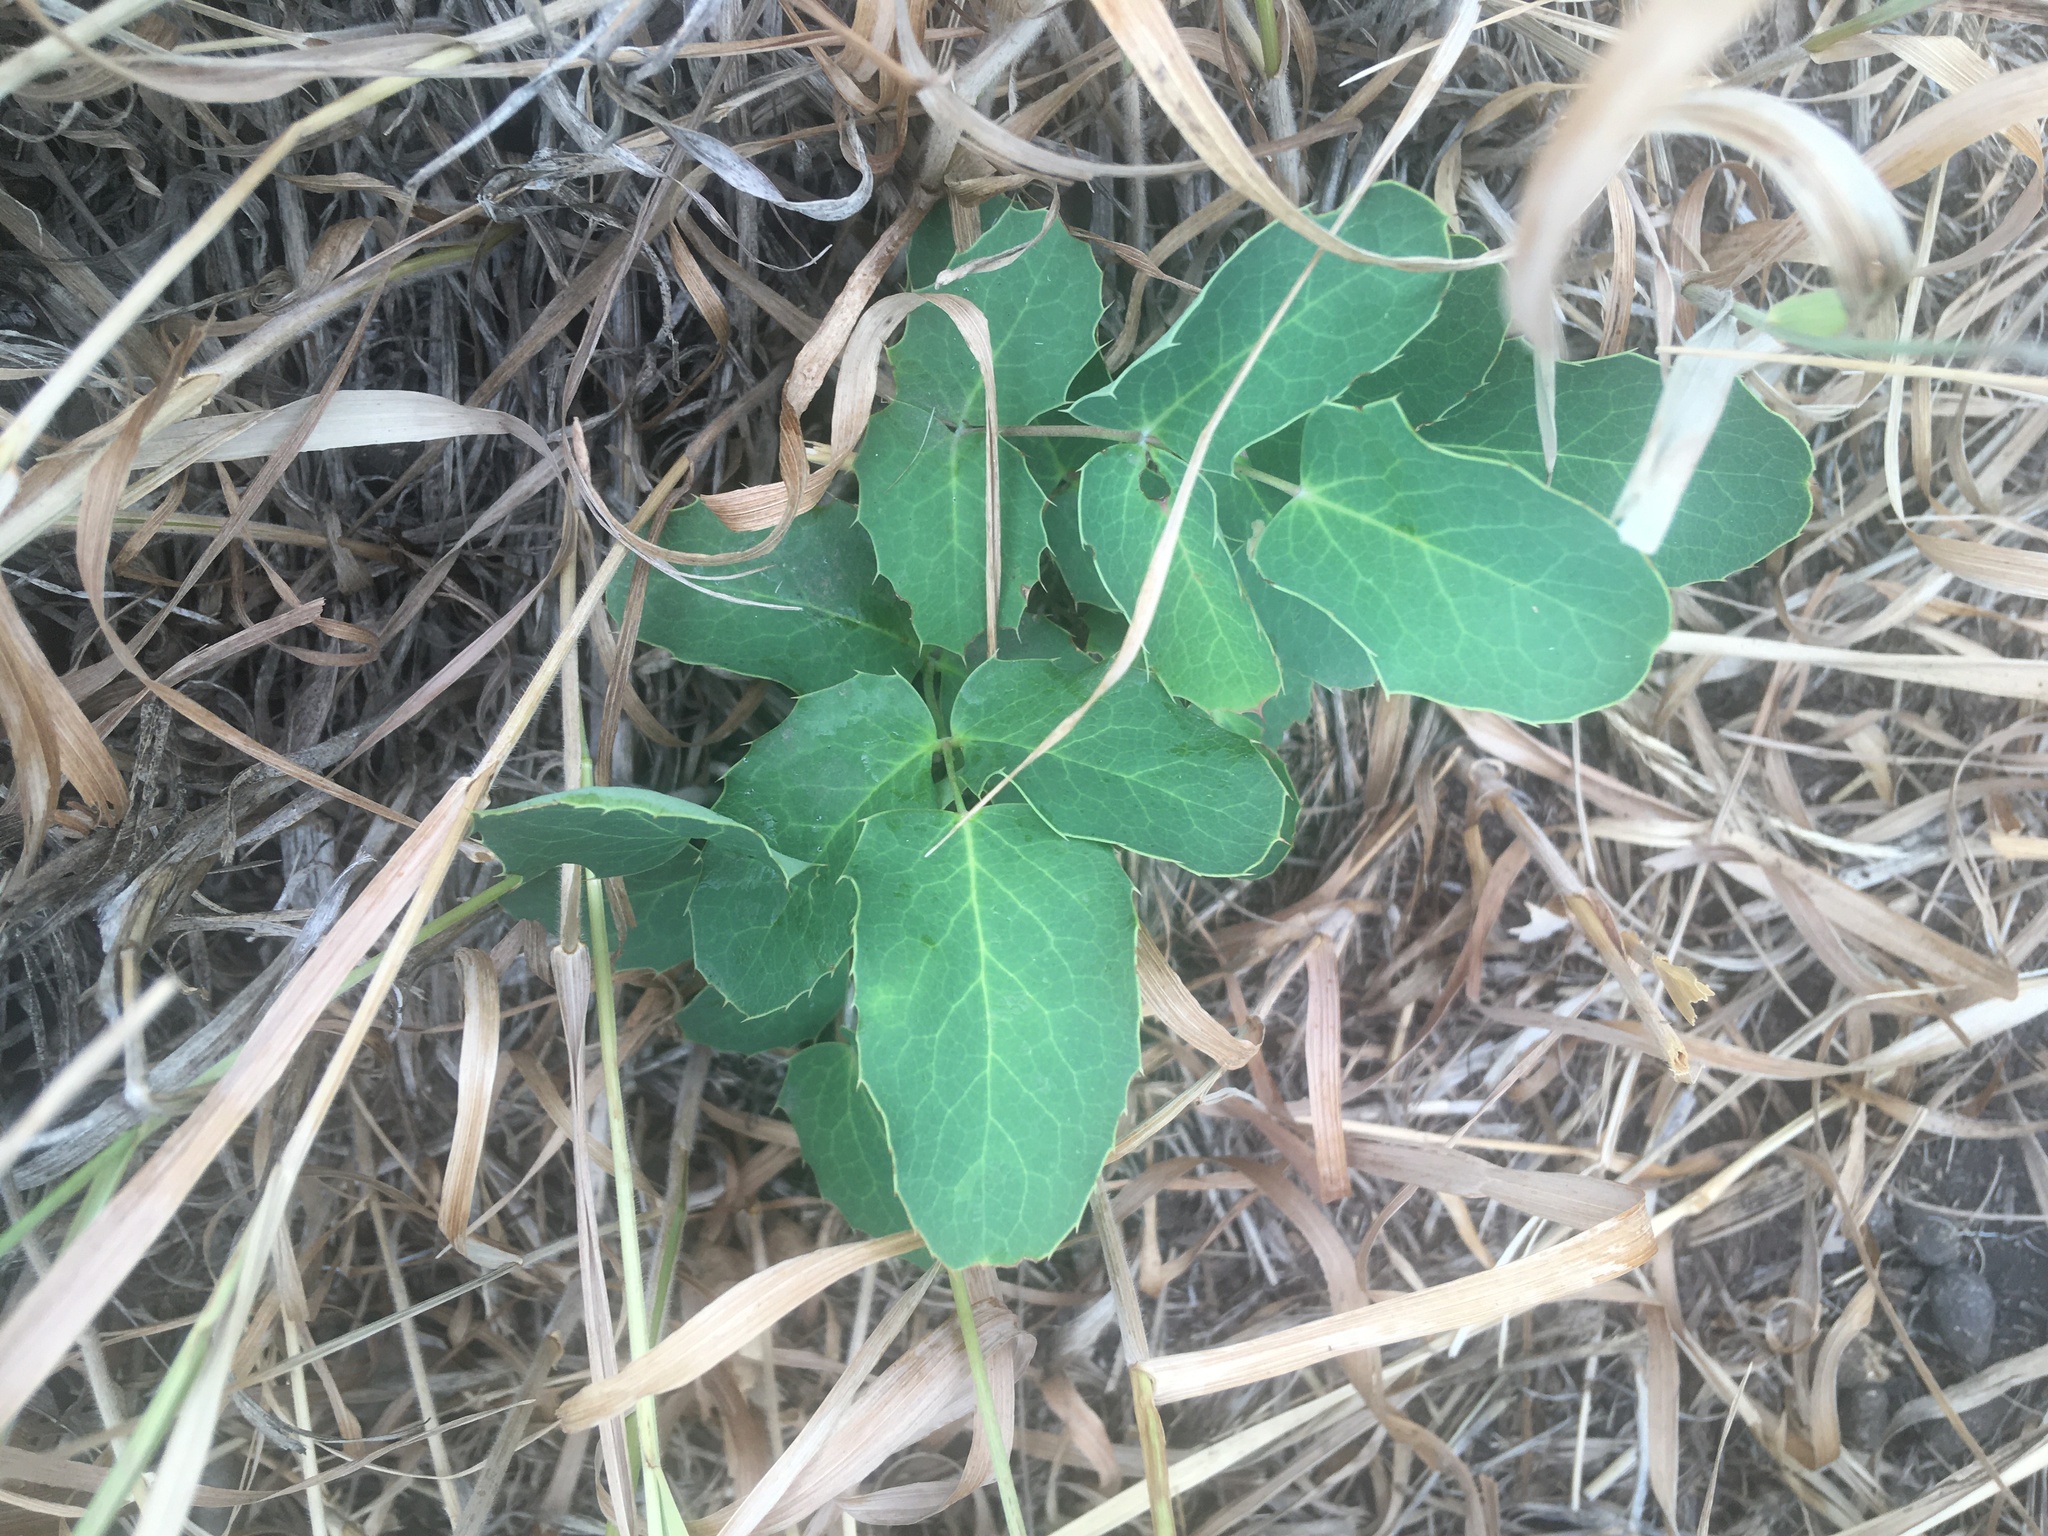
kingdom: Plantae
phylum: Tracheophyta
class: Magnoliopsida
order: Ranunculales
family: Berberidaceae
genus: Mahonia
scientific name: Mahonia repens
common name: Creeping oregon-grape
